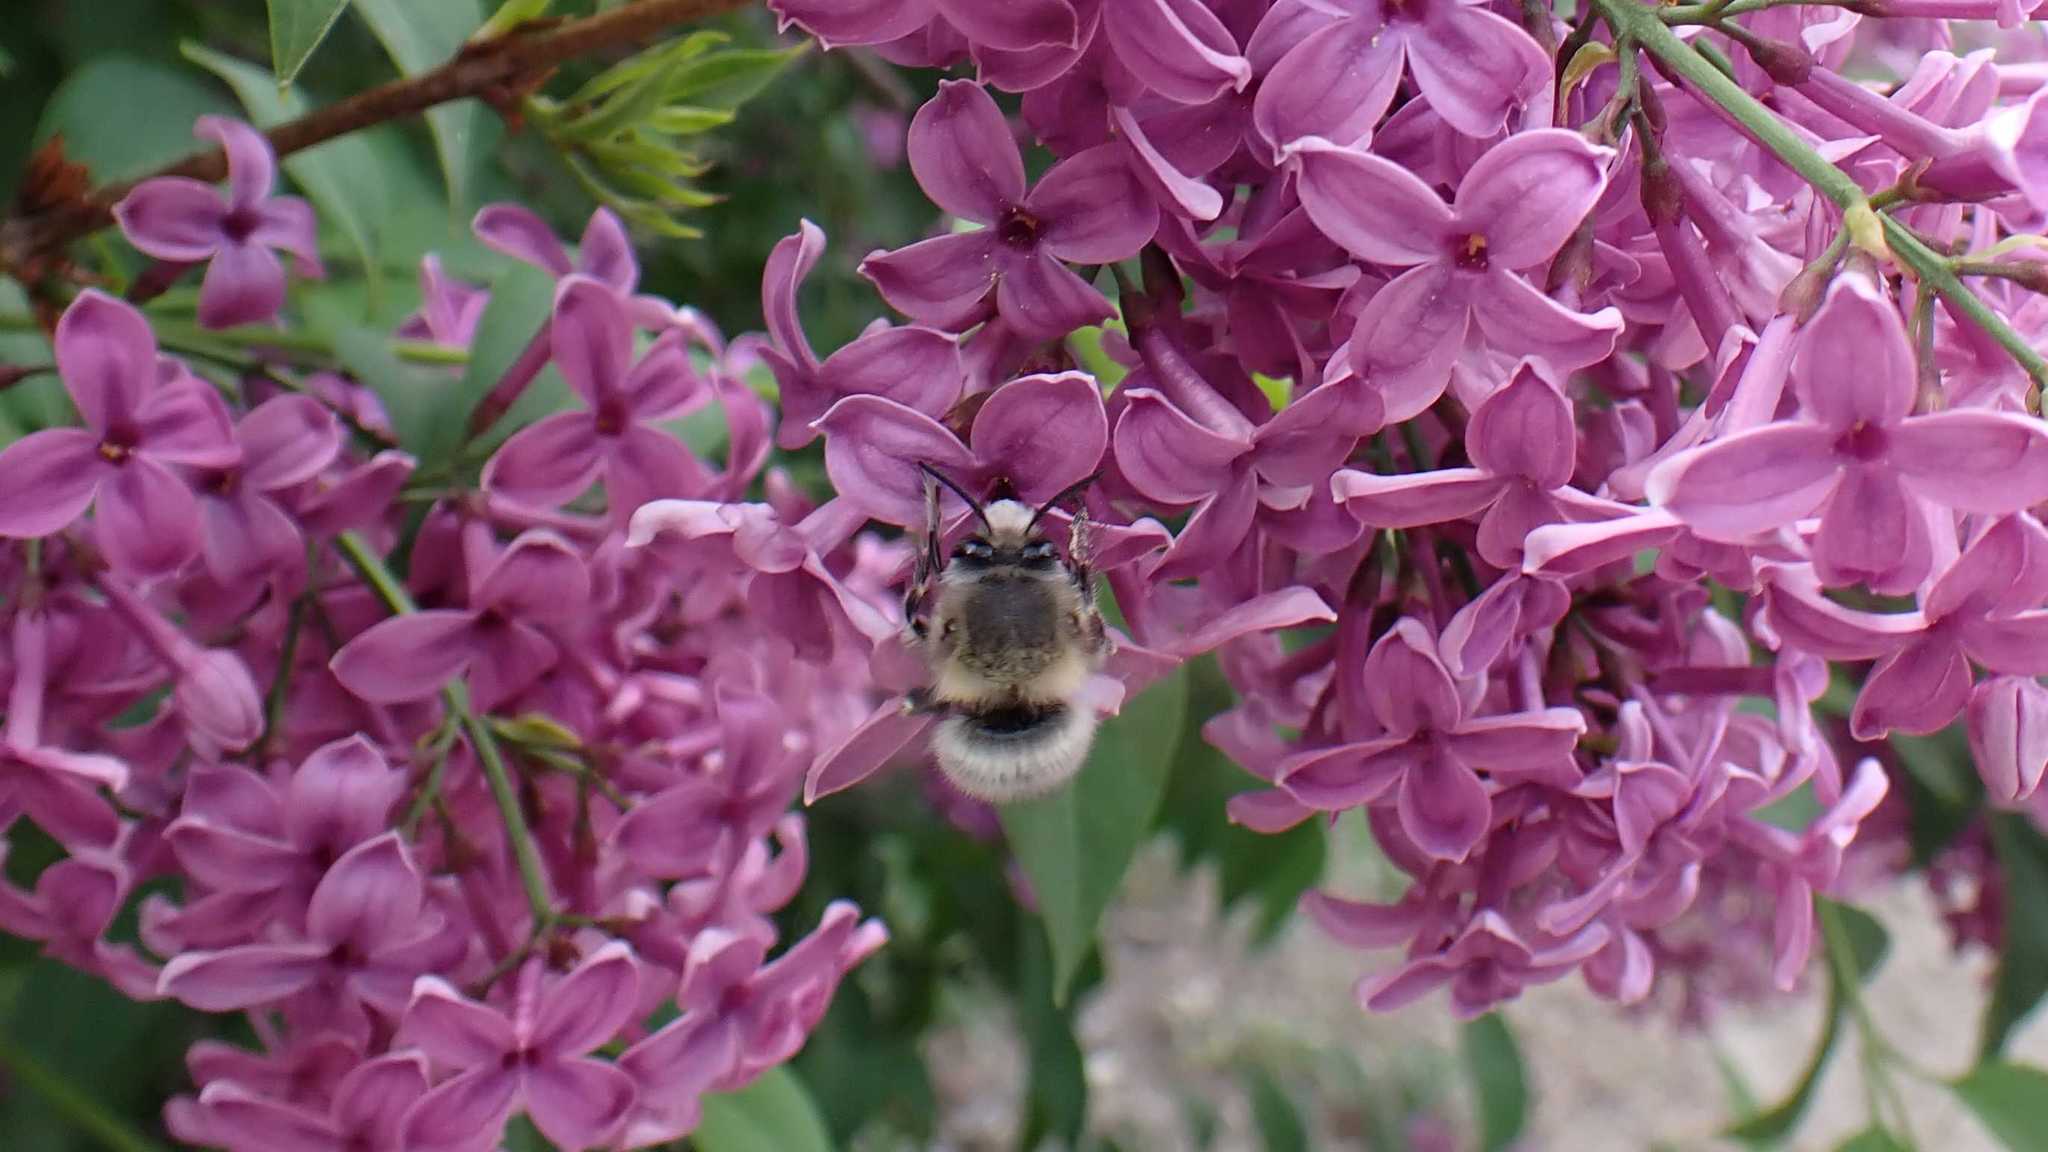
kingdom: Animalia
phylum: Arthropoda
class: Insecta
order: Hymenoptera
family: Apidae
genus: Anthophora
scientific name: Anthophora plumipes
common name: Hairy-footed flower bee
